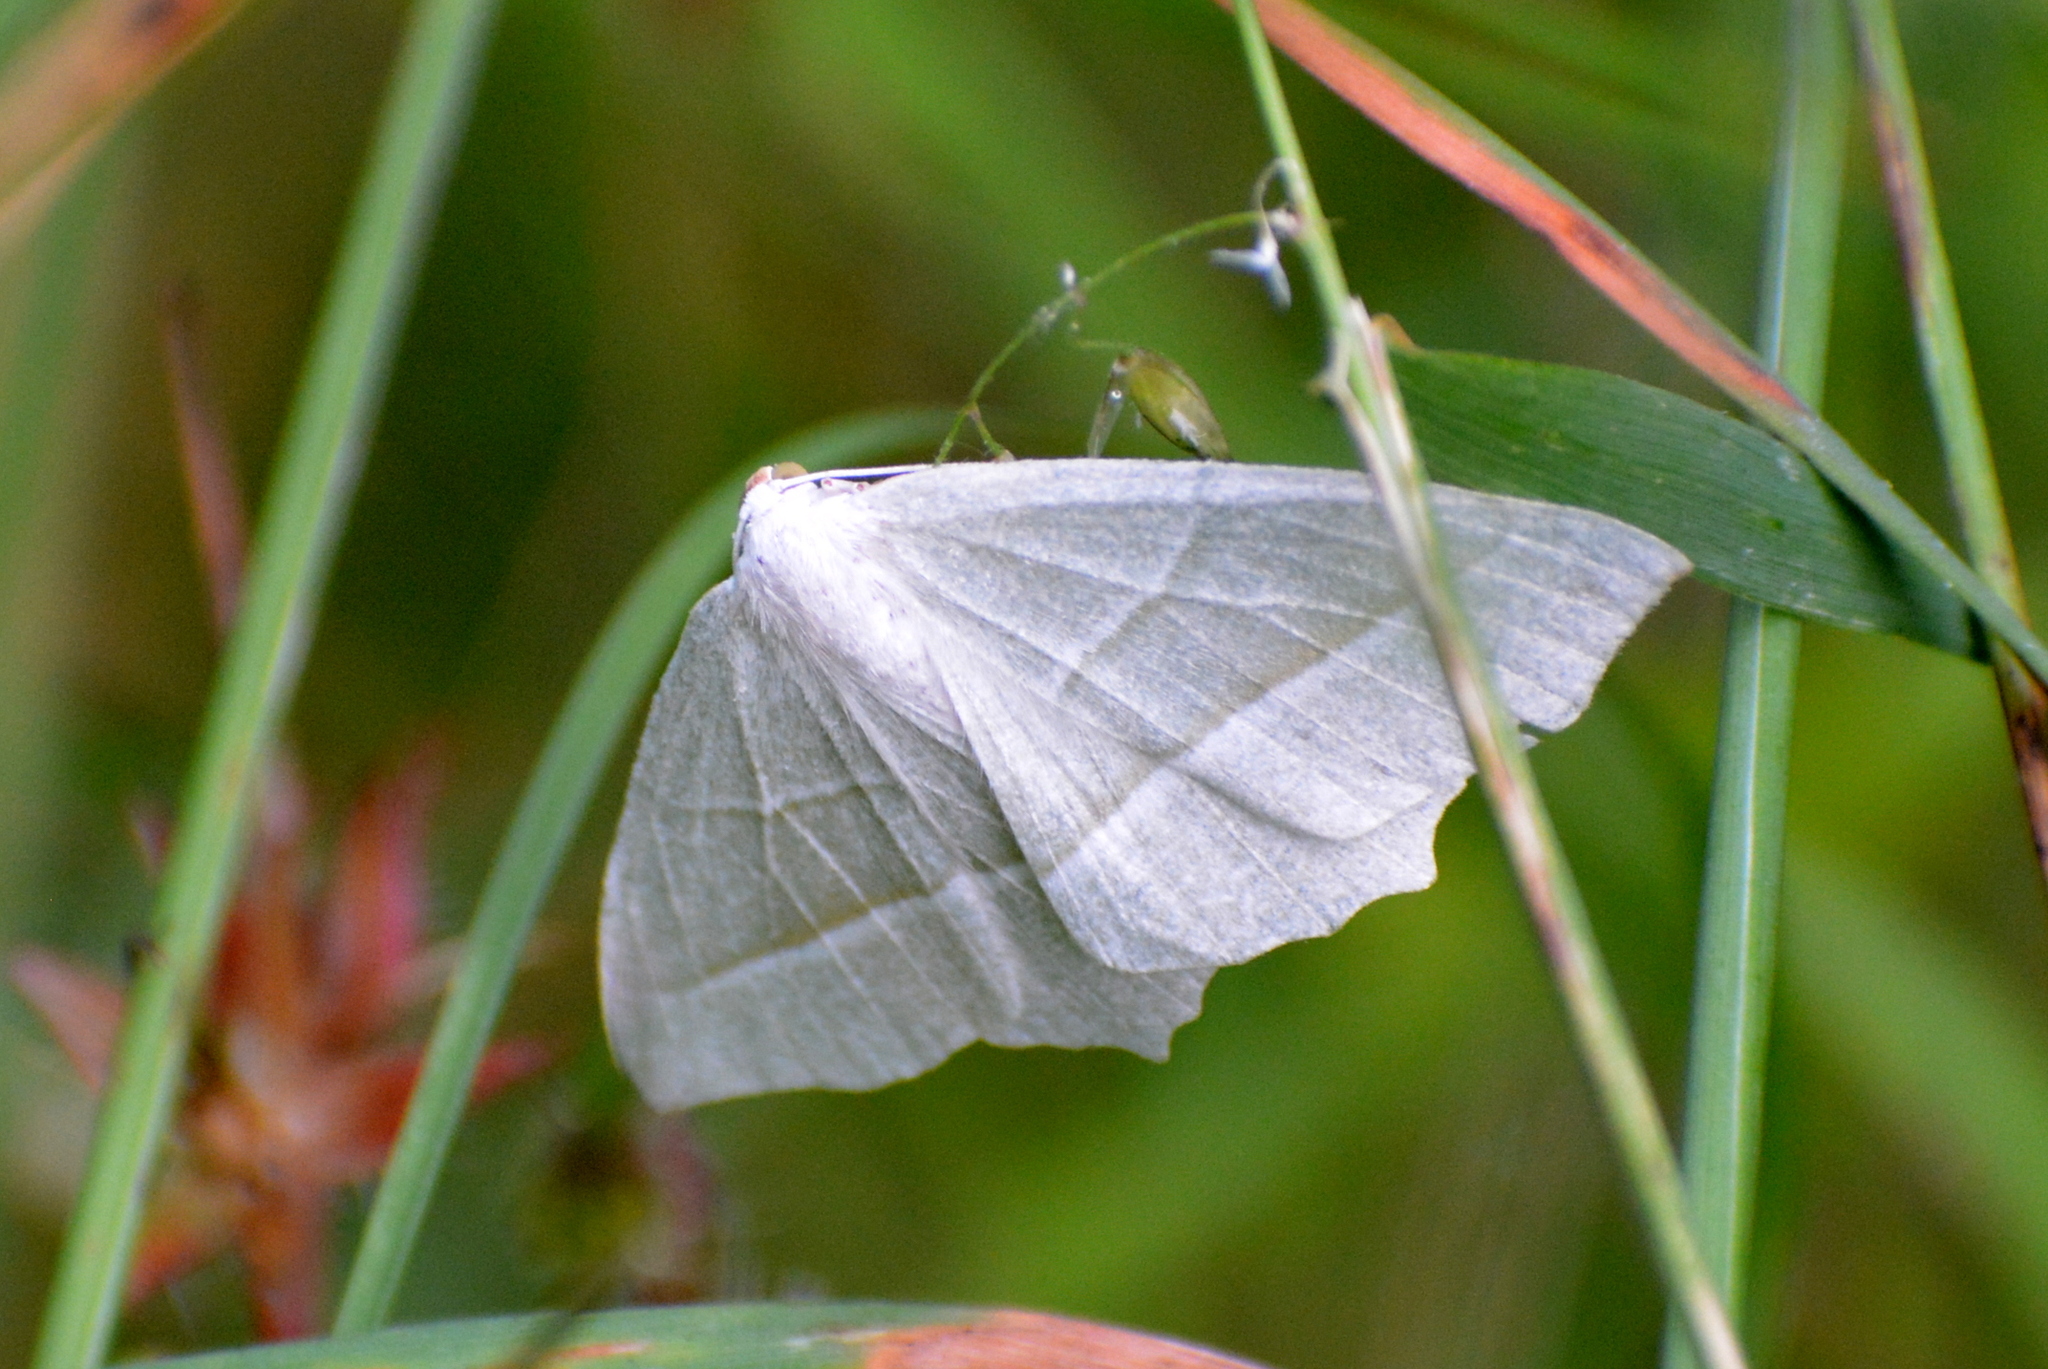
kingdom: Animalia
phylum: Arthropoda
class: Insecta
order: Lepidoptera
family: Geometridae
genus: Campaea
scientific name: Campaea margaritaria
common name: Light emerald
